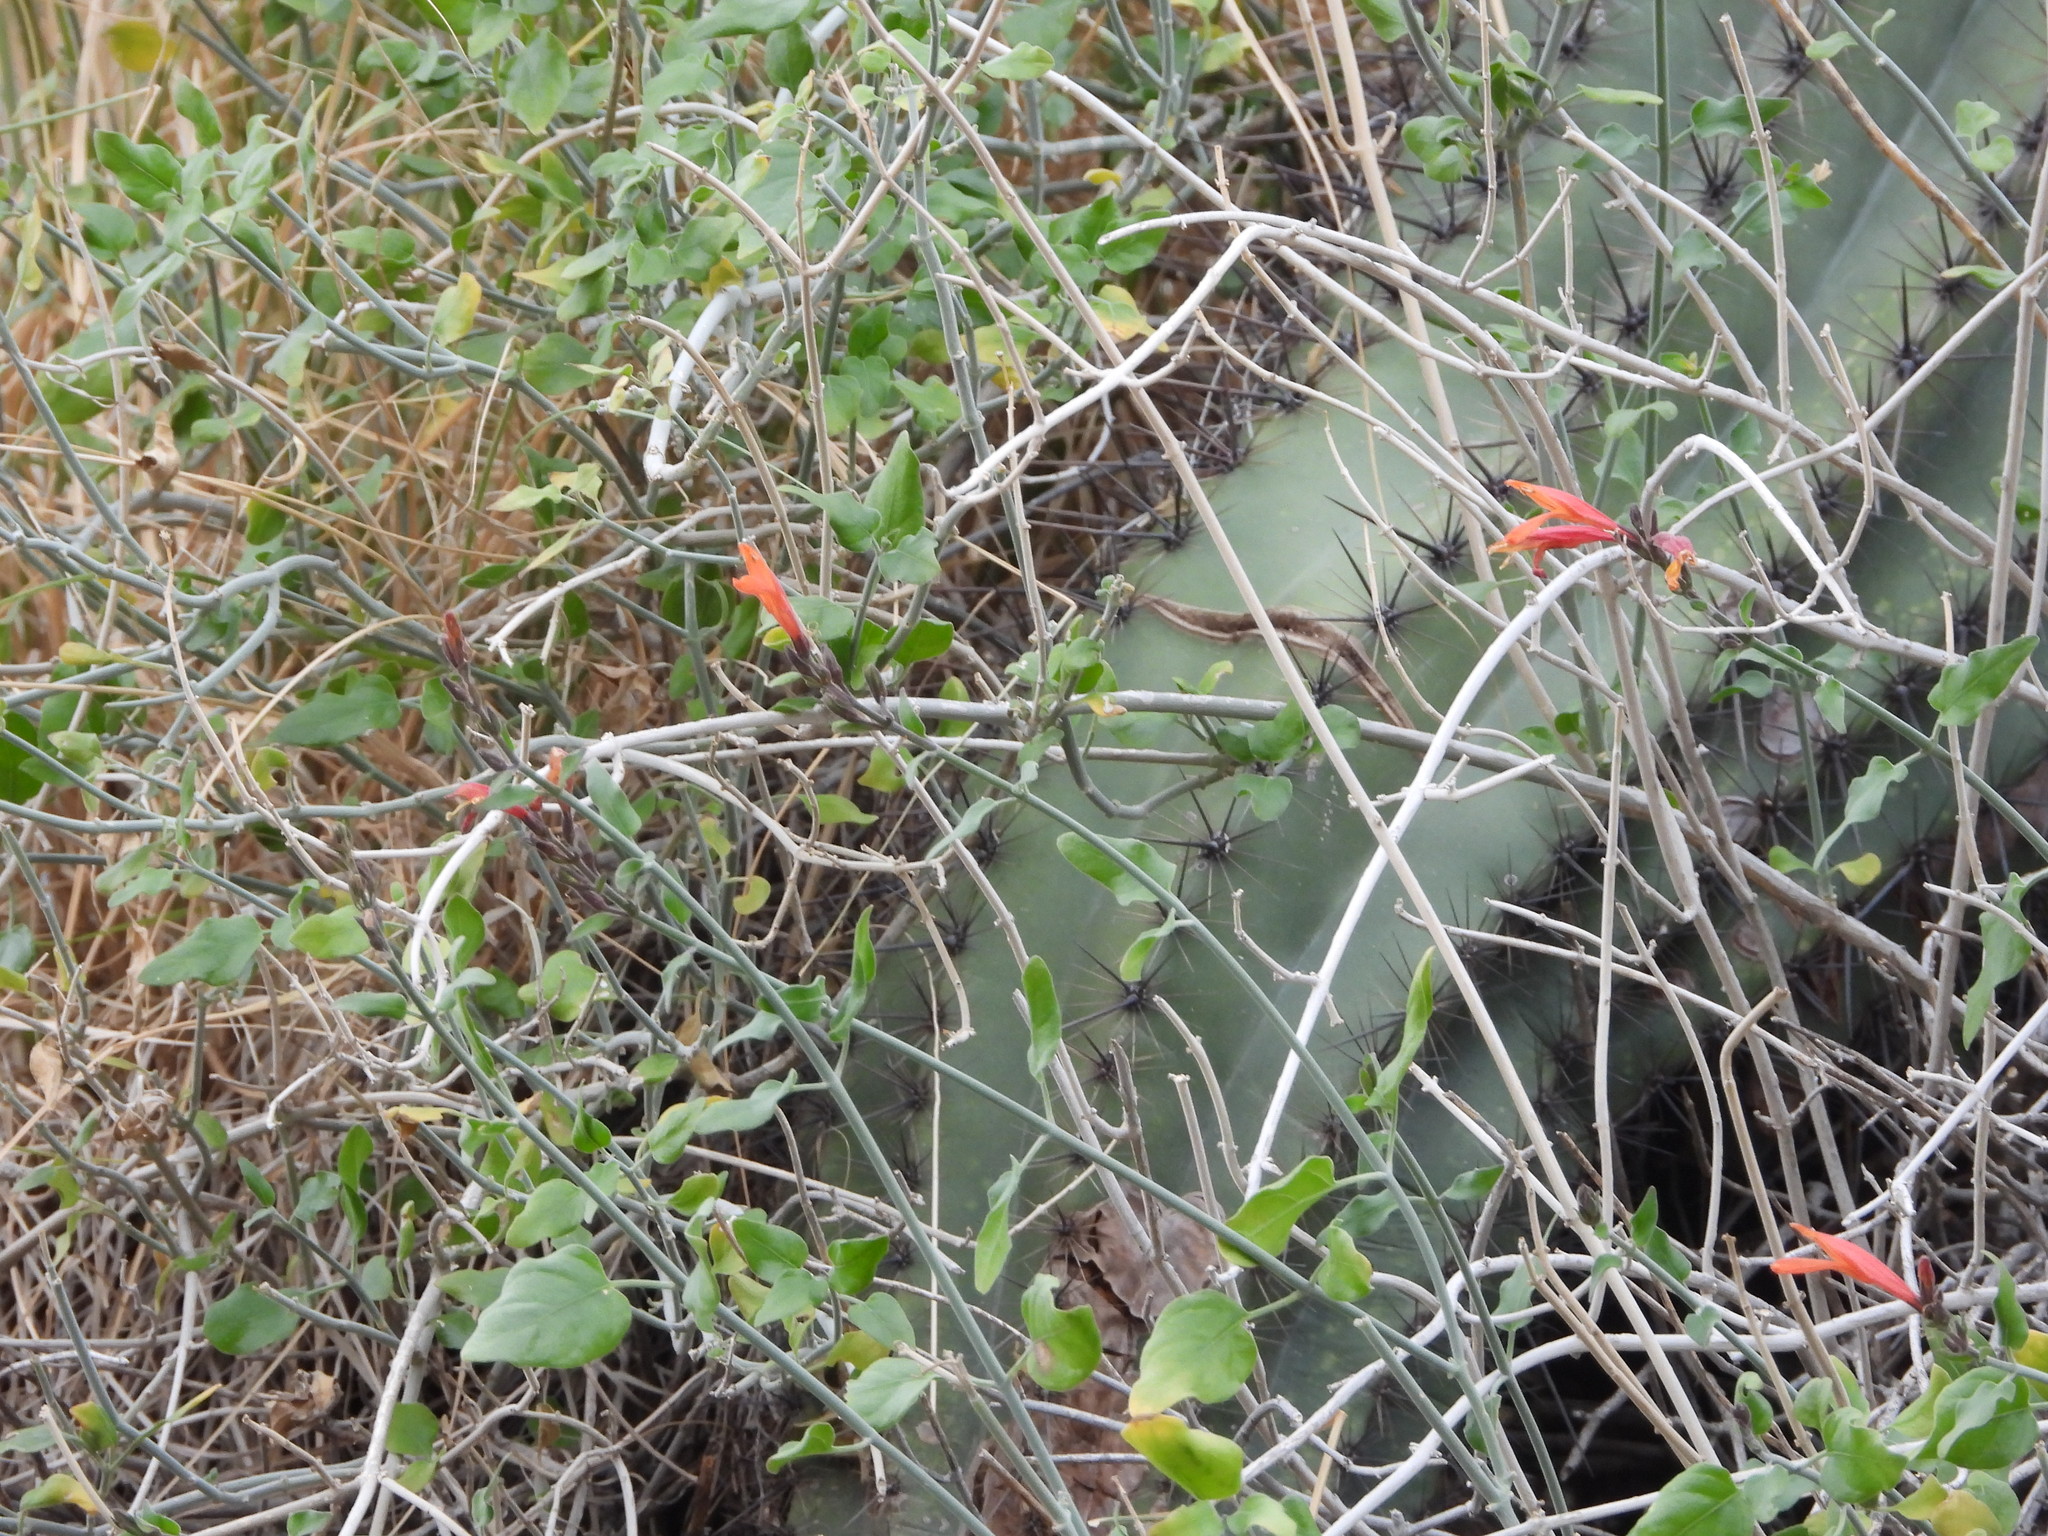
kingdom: Plantae
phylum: Tracheophyta
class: Magnoliopsida
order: Lamiales
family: Acanthaceae
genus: Justicia
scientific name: Justicia californica
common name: Chuparosa-honeysuckle
